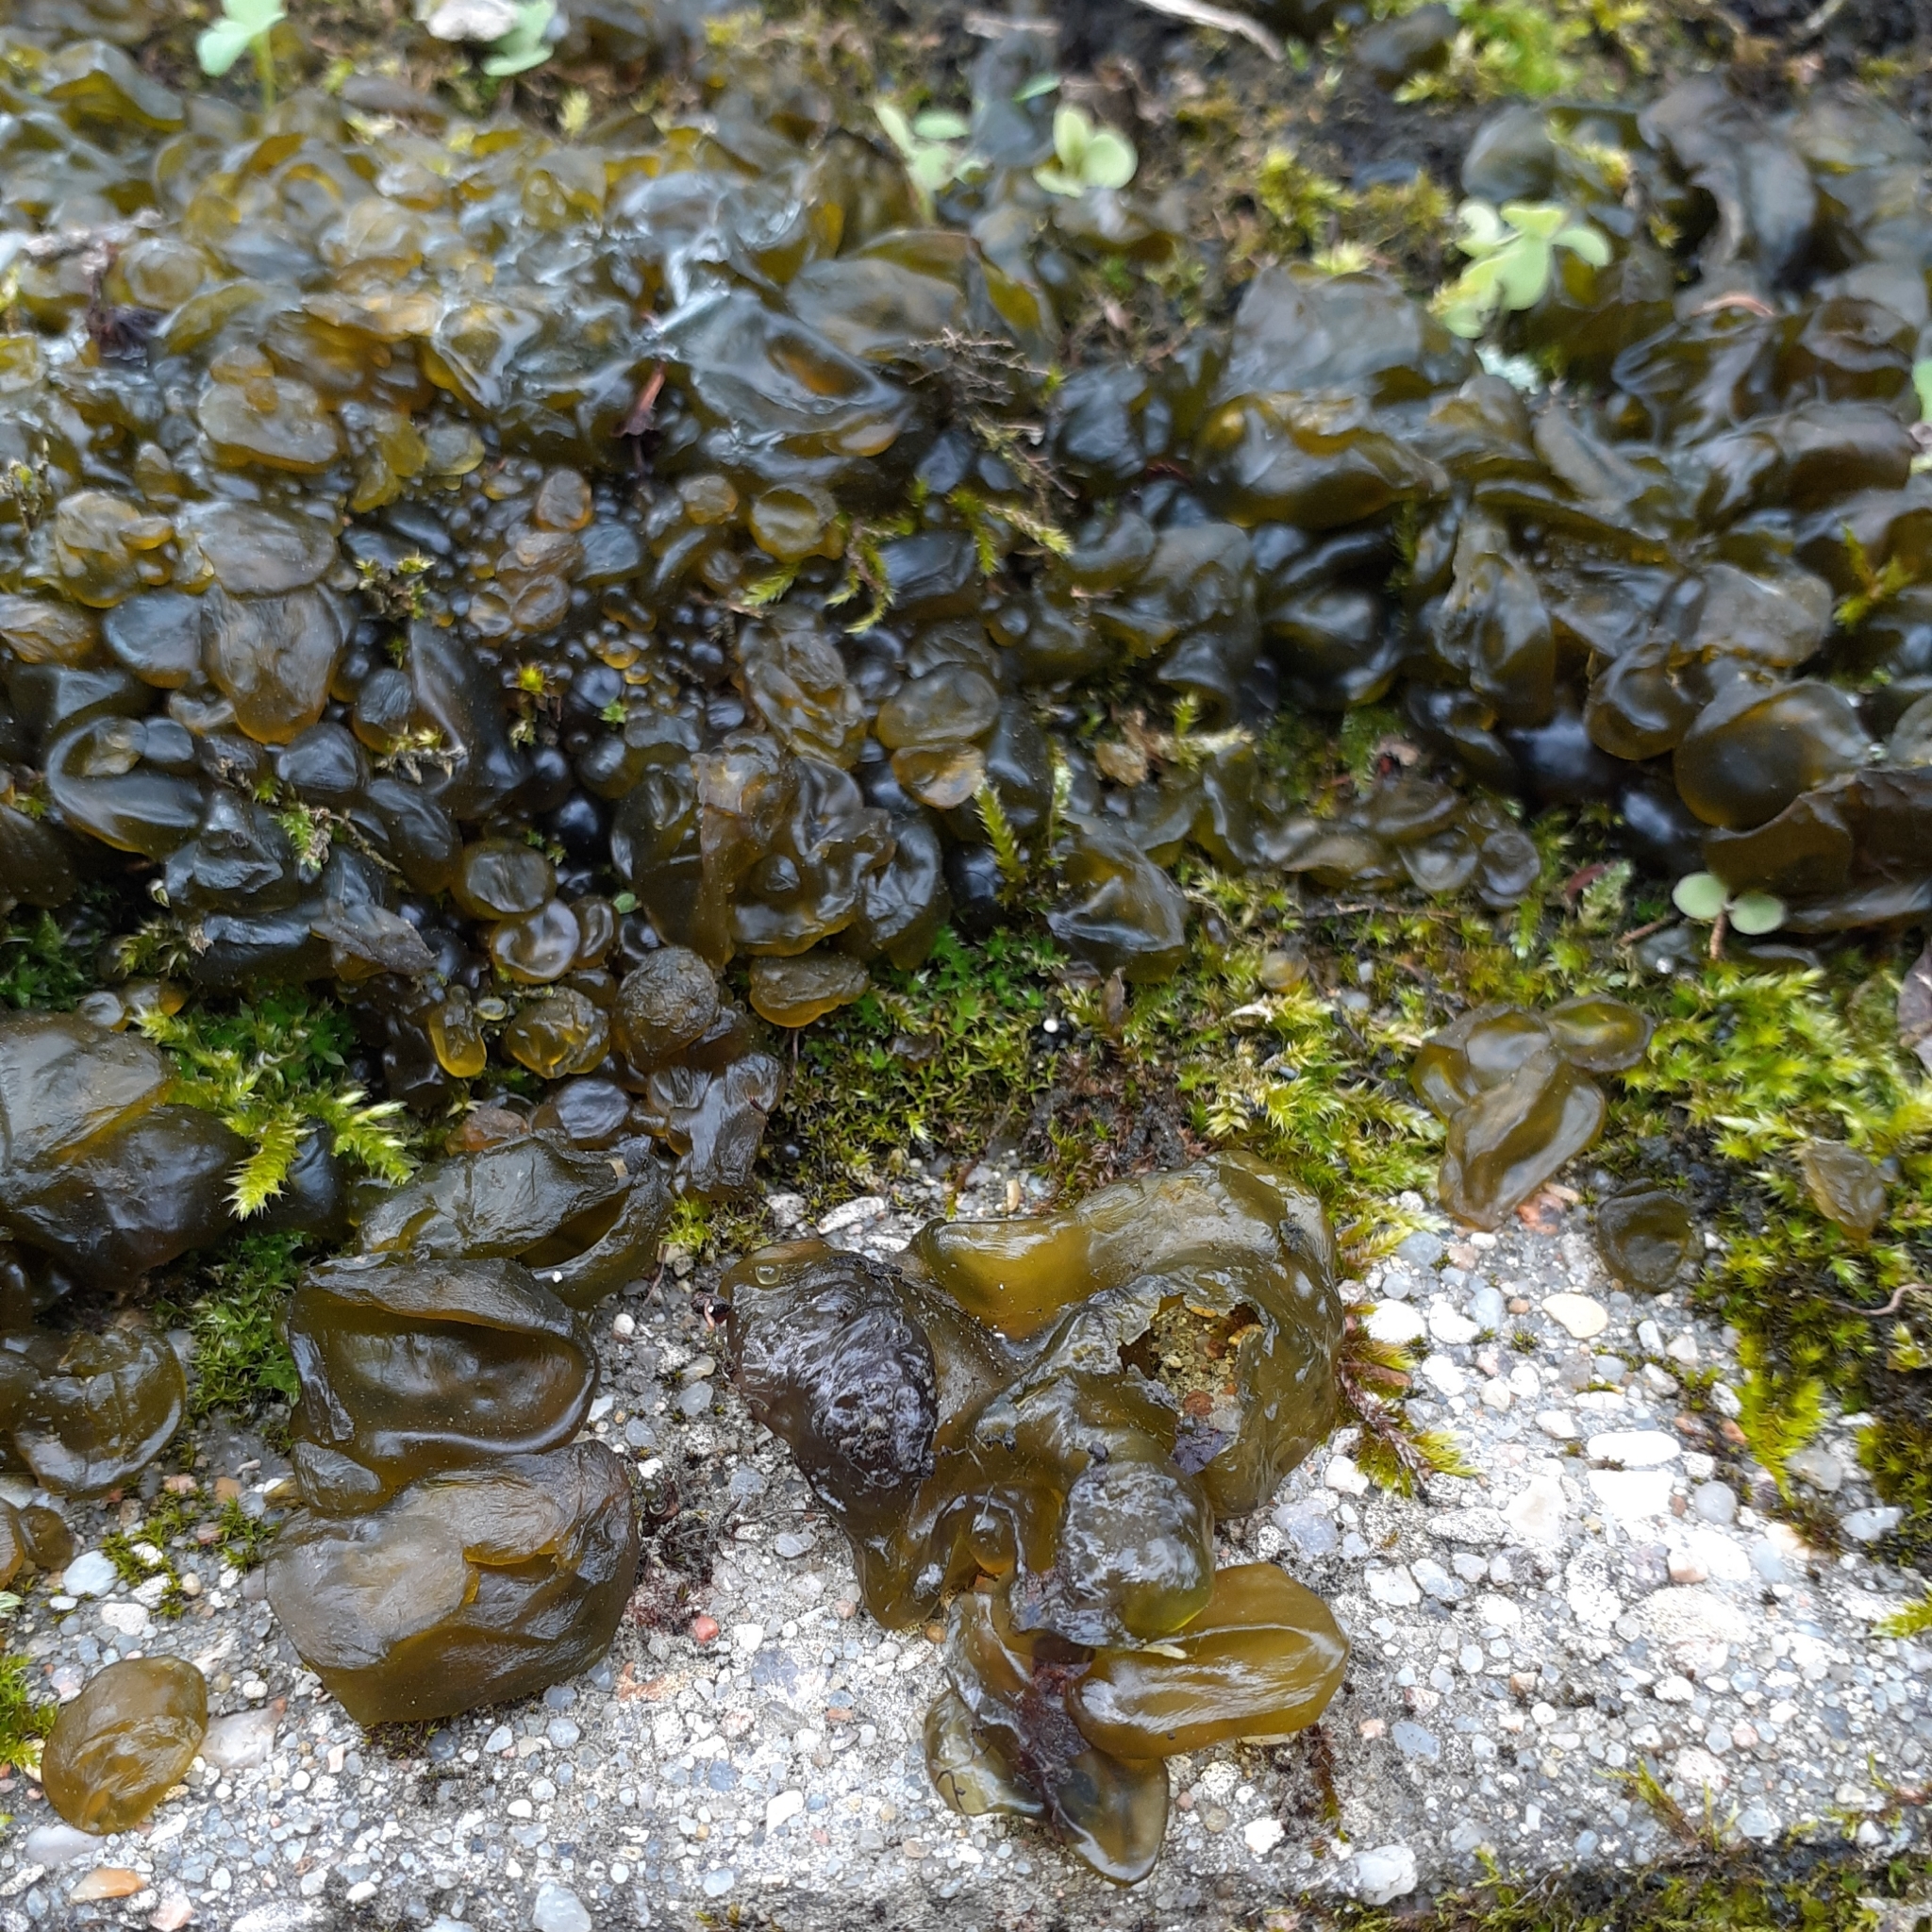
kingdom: Bacteria
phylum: Cyanobacteria
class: Cyanobacteriia
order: Cyanobacteriales
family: Nostocaceae
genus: Nostoc
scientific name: Nostoc commune
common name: Star jelly
